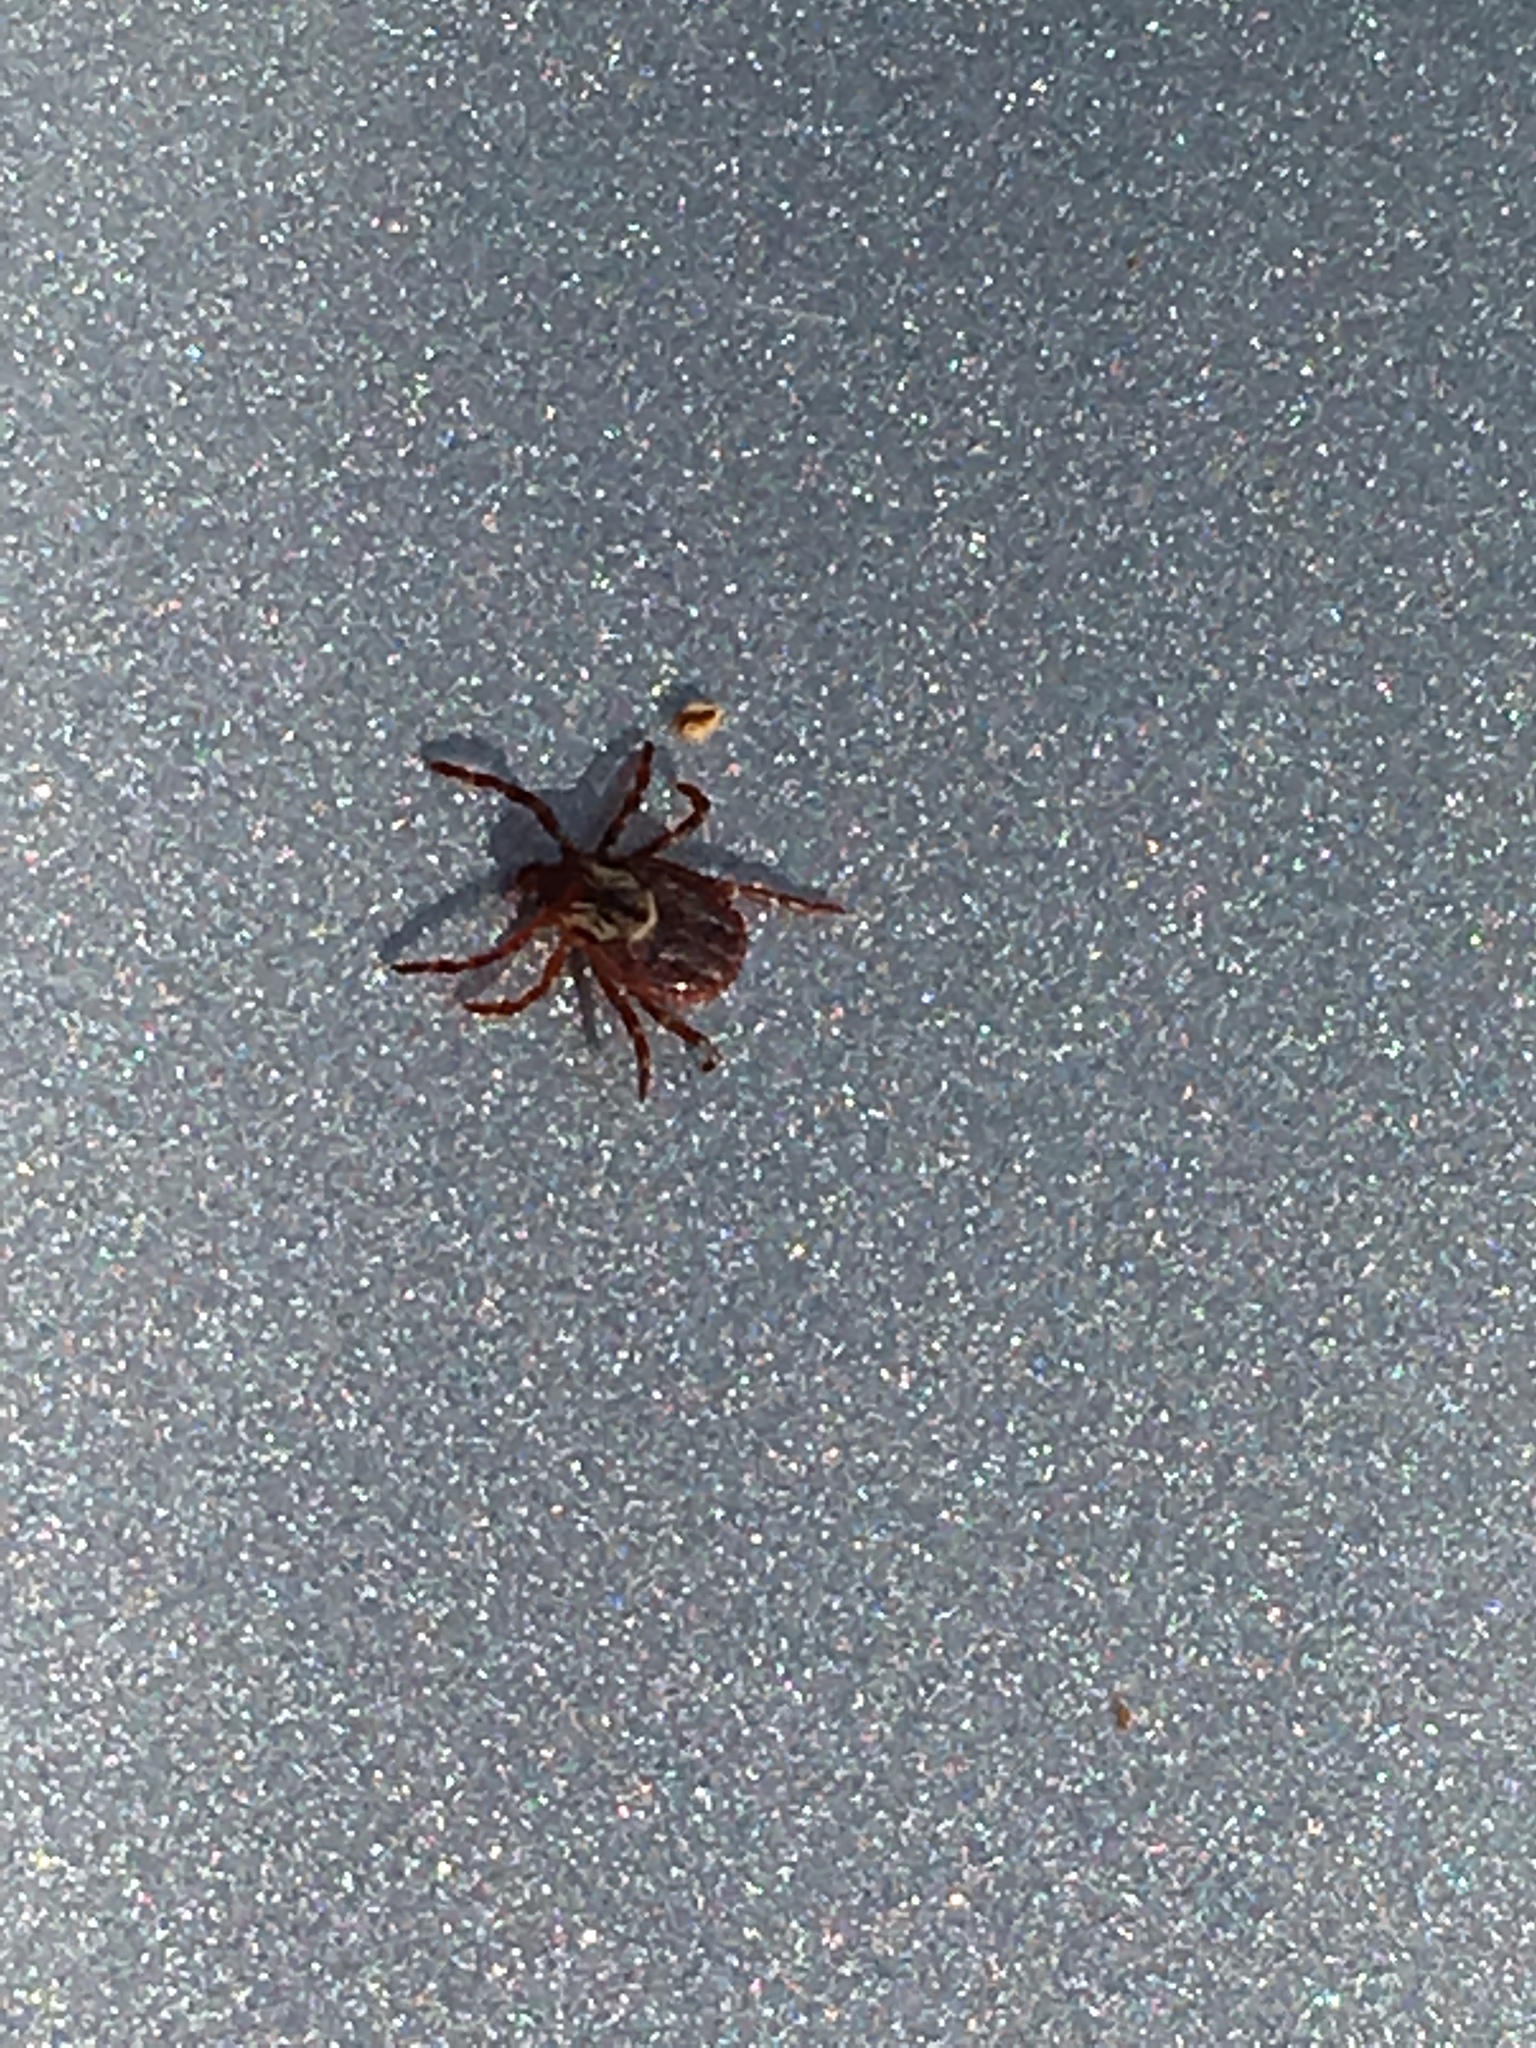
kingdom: Animalia
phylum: Arthropoda
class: Arachnida
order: Ixodida
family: Ixodidae
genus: Dermacentor
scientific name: Dermacentor variabilis
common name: American dog tick
